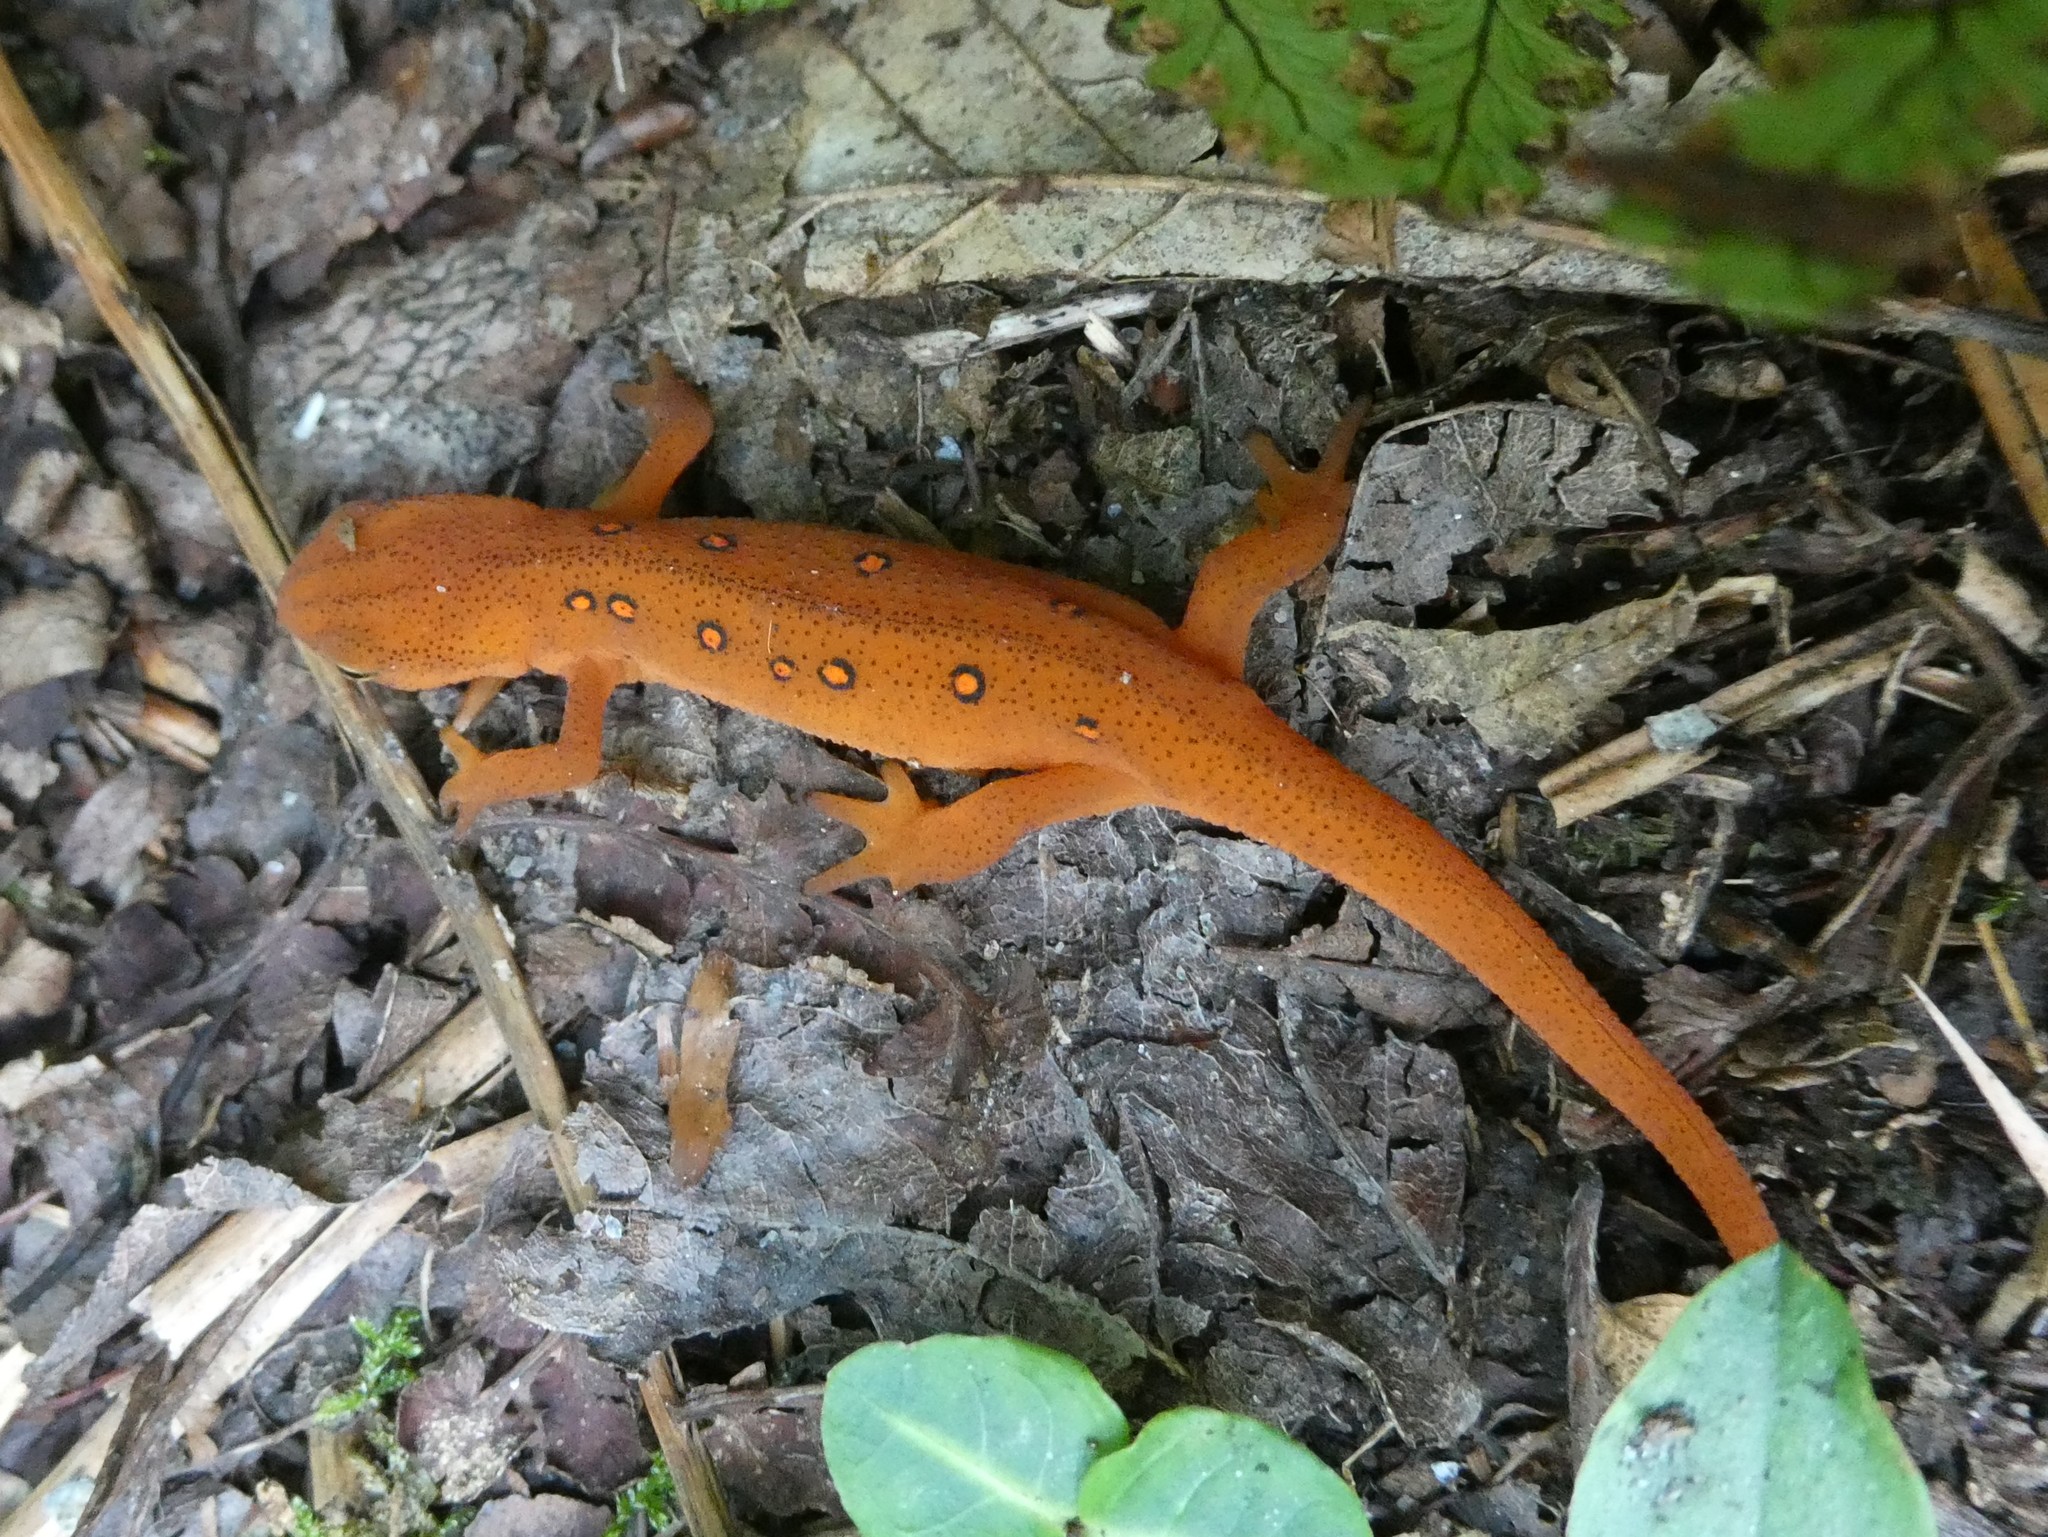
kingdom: Animalia
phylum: Chordata
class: Amphibia
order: Caudata
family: Salamandridae
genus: Notophthalmus
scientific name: Notophthalmus viridescens
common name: Eastern newt
